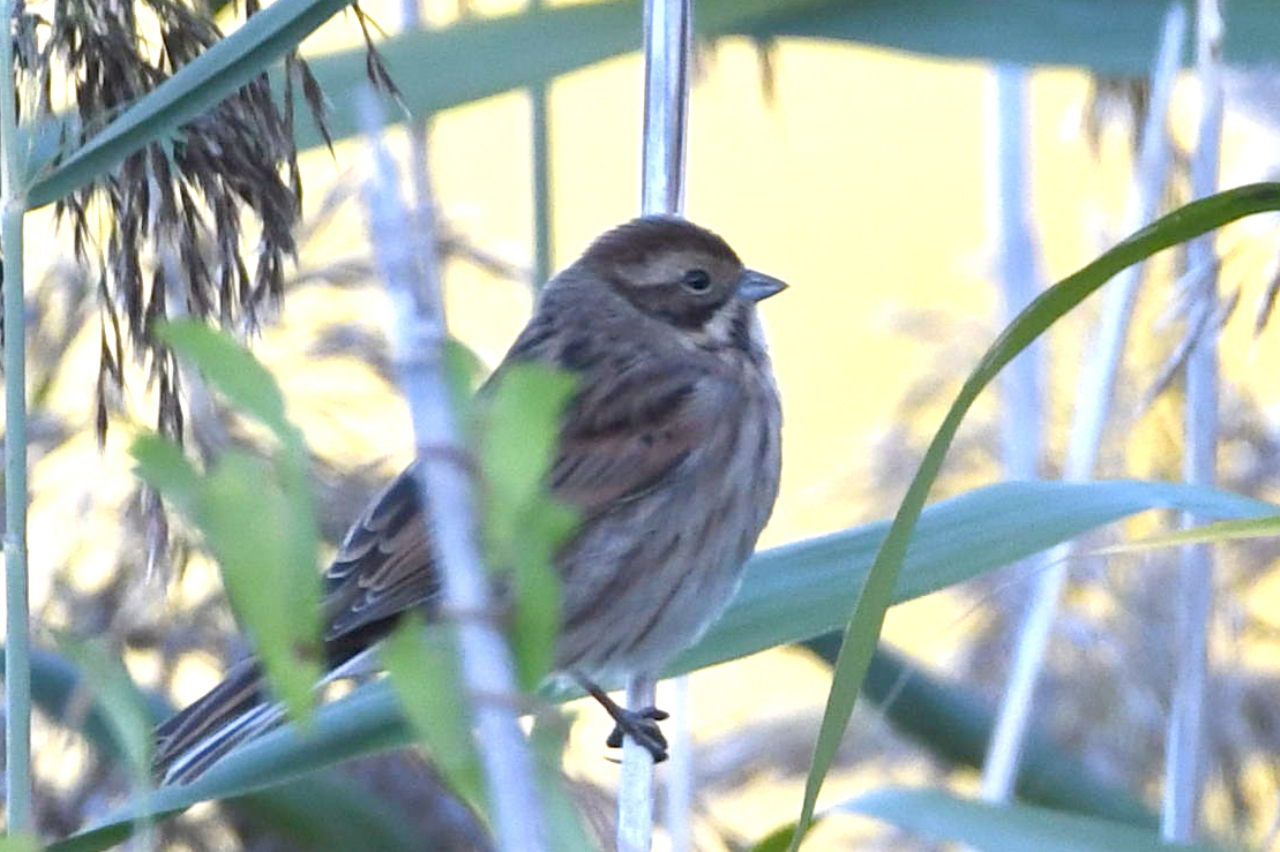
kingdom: Animalia
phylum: Chordata
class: Aves
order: Passeriformes
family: Emberizidae
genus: Emberiza
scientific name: Emberiza schoeniclus
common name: Reed bunting
